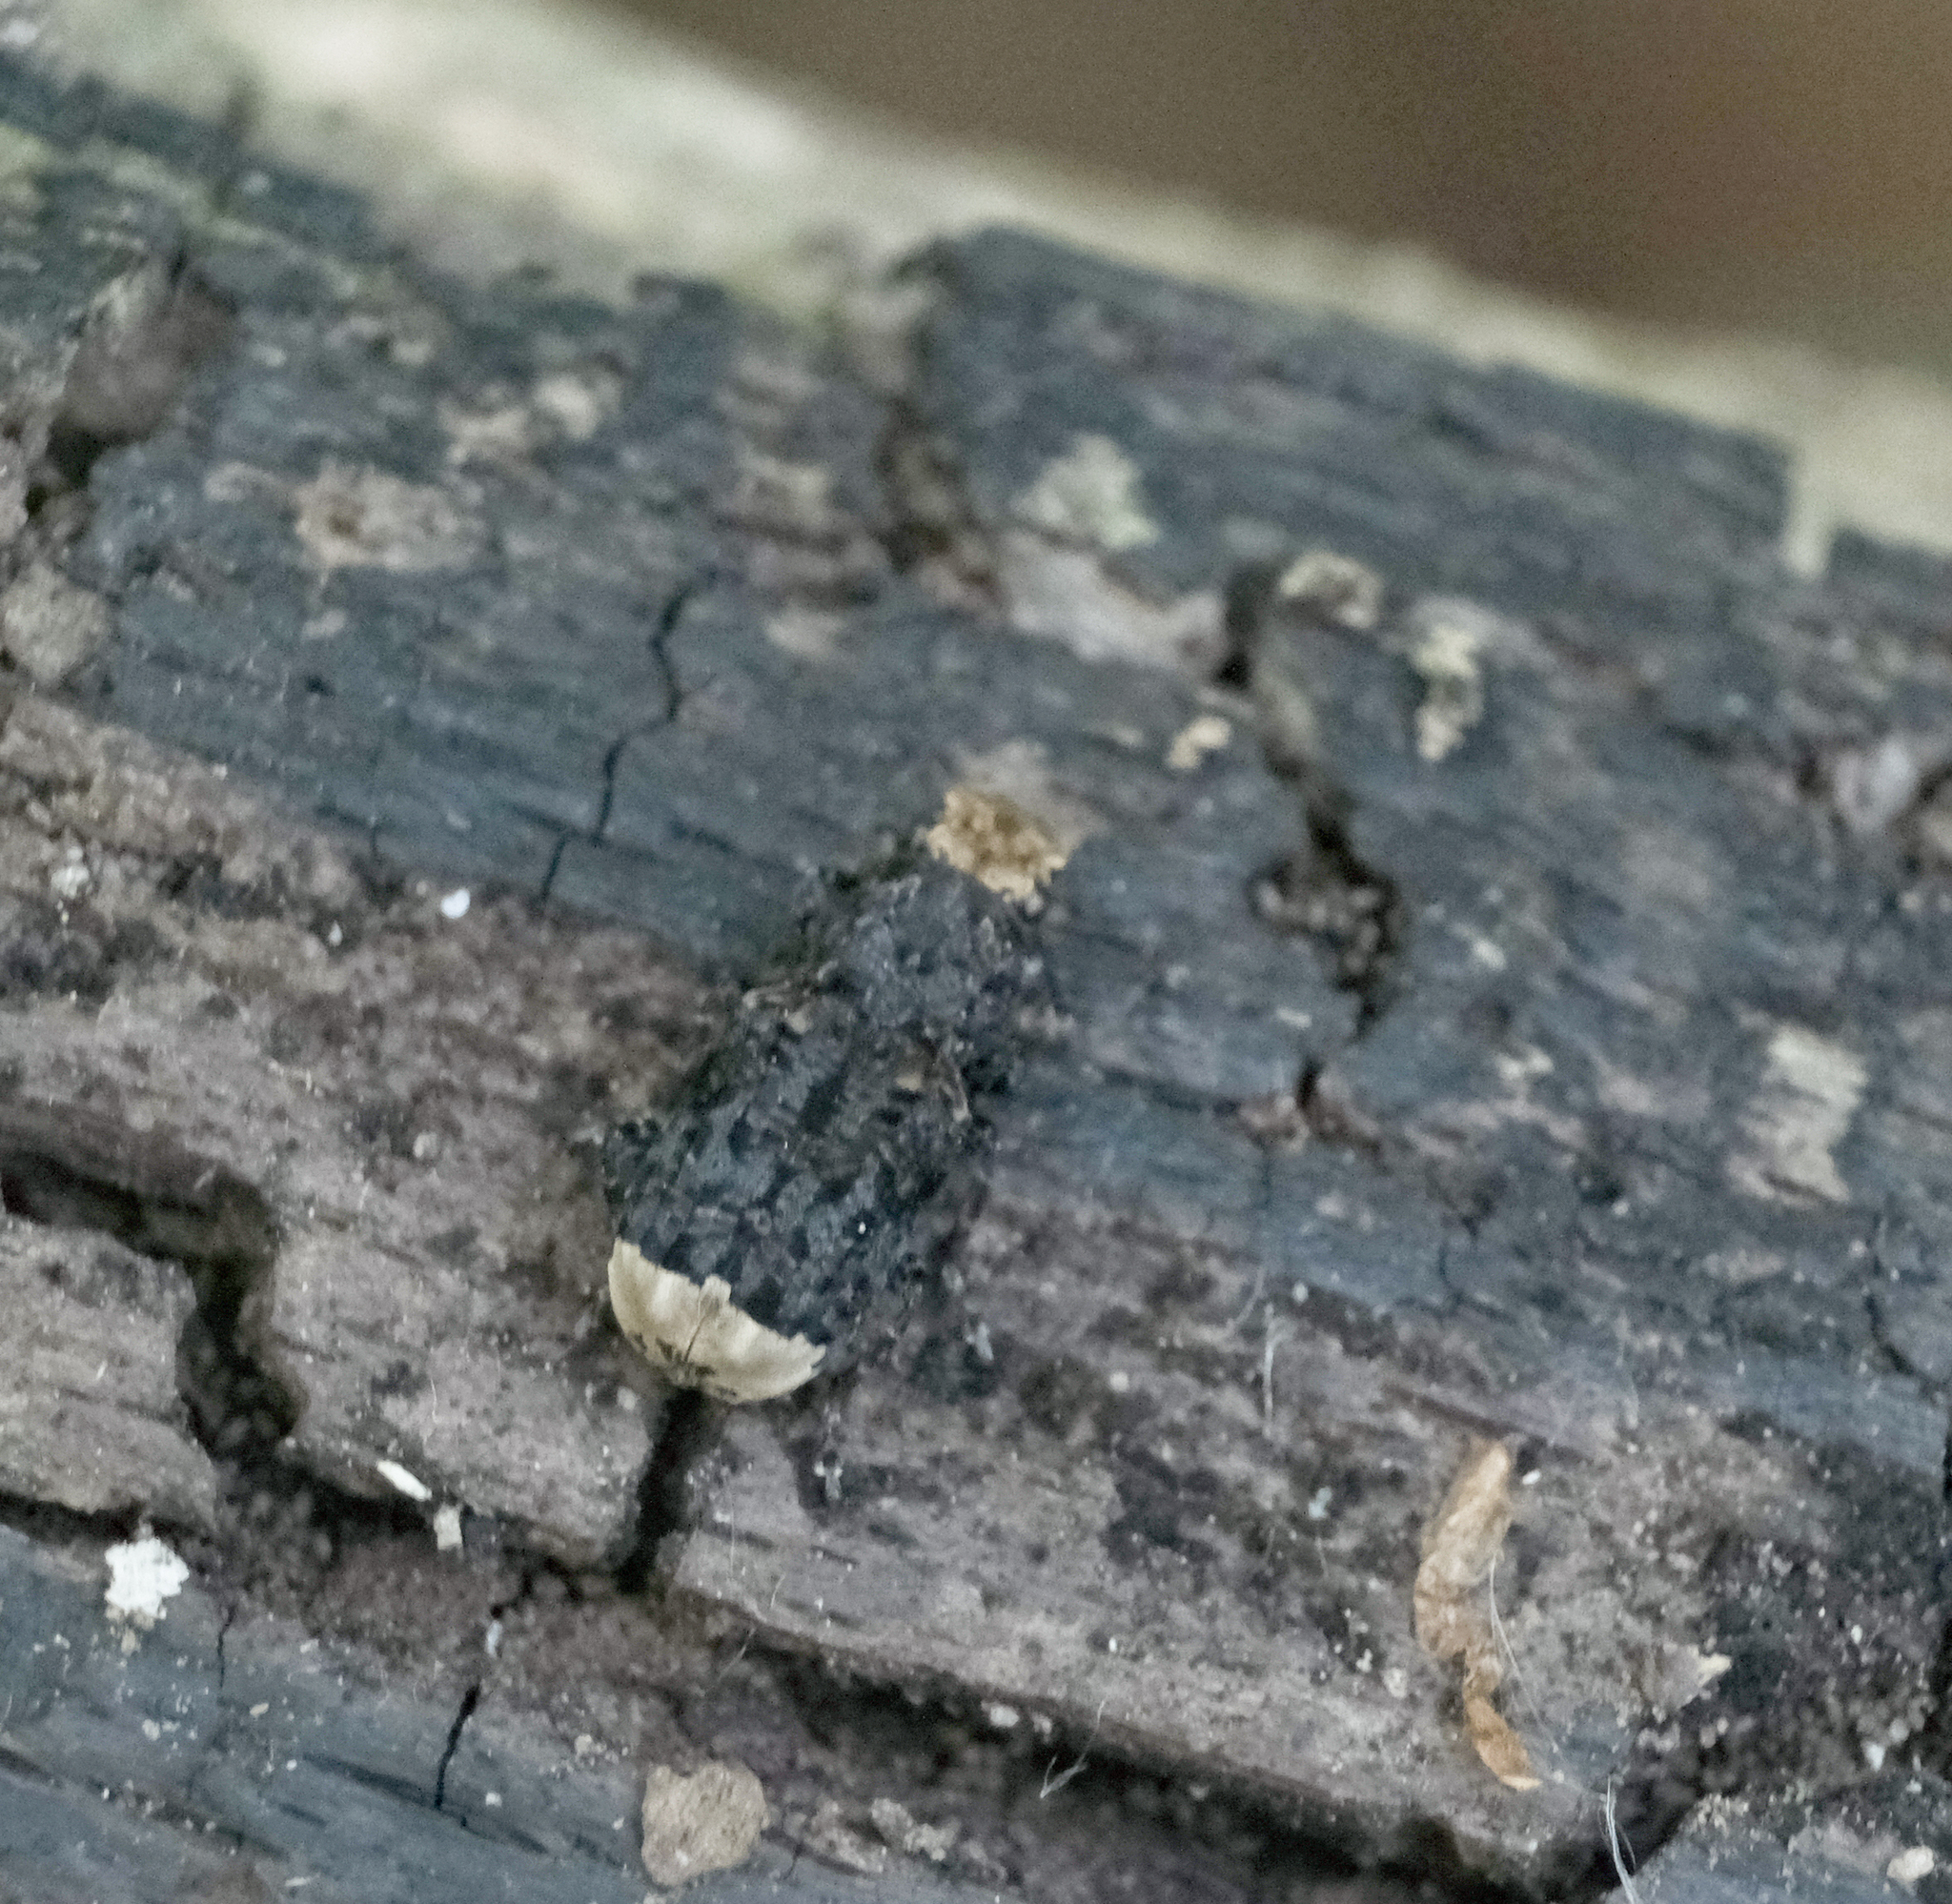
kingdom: Animalia
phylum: Arthropoda
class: Insecta
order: Coleoptera
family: Anthribidae
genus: Platyrhinus
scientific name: Platyrhinus resinosus
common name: Cramp-ball fungus weevil
